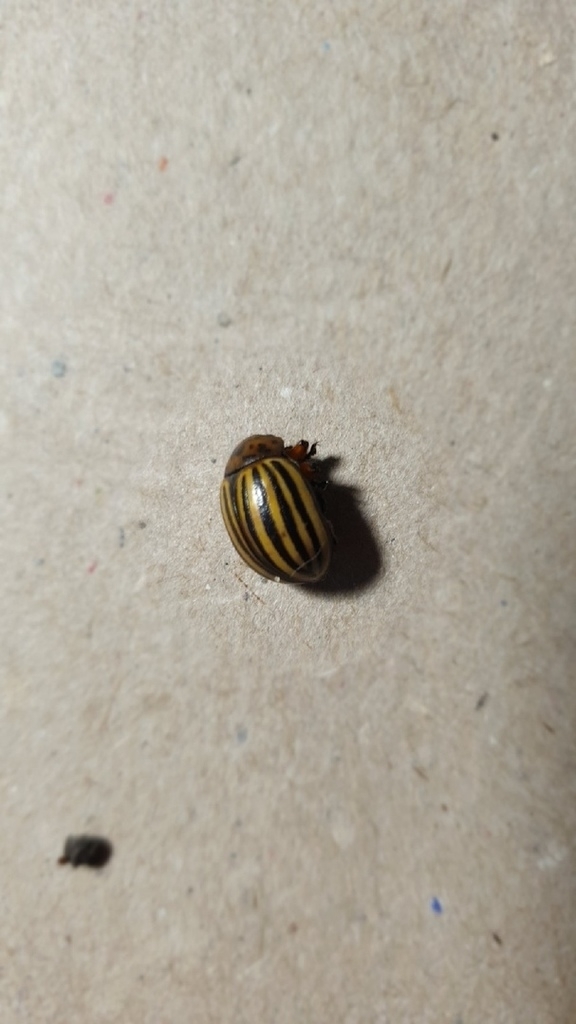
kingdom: Animalia
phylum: Arthropoda
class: Insecta
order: Coleoptera
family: Chrysomelidae
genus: Leptinotarsa
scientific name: Leptinotarsa decemlineata
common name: Colorado potato beetle
